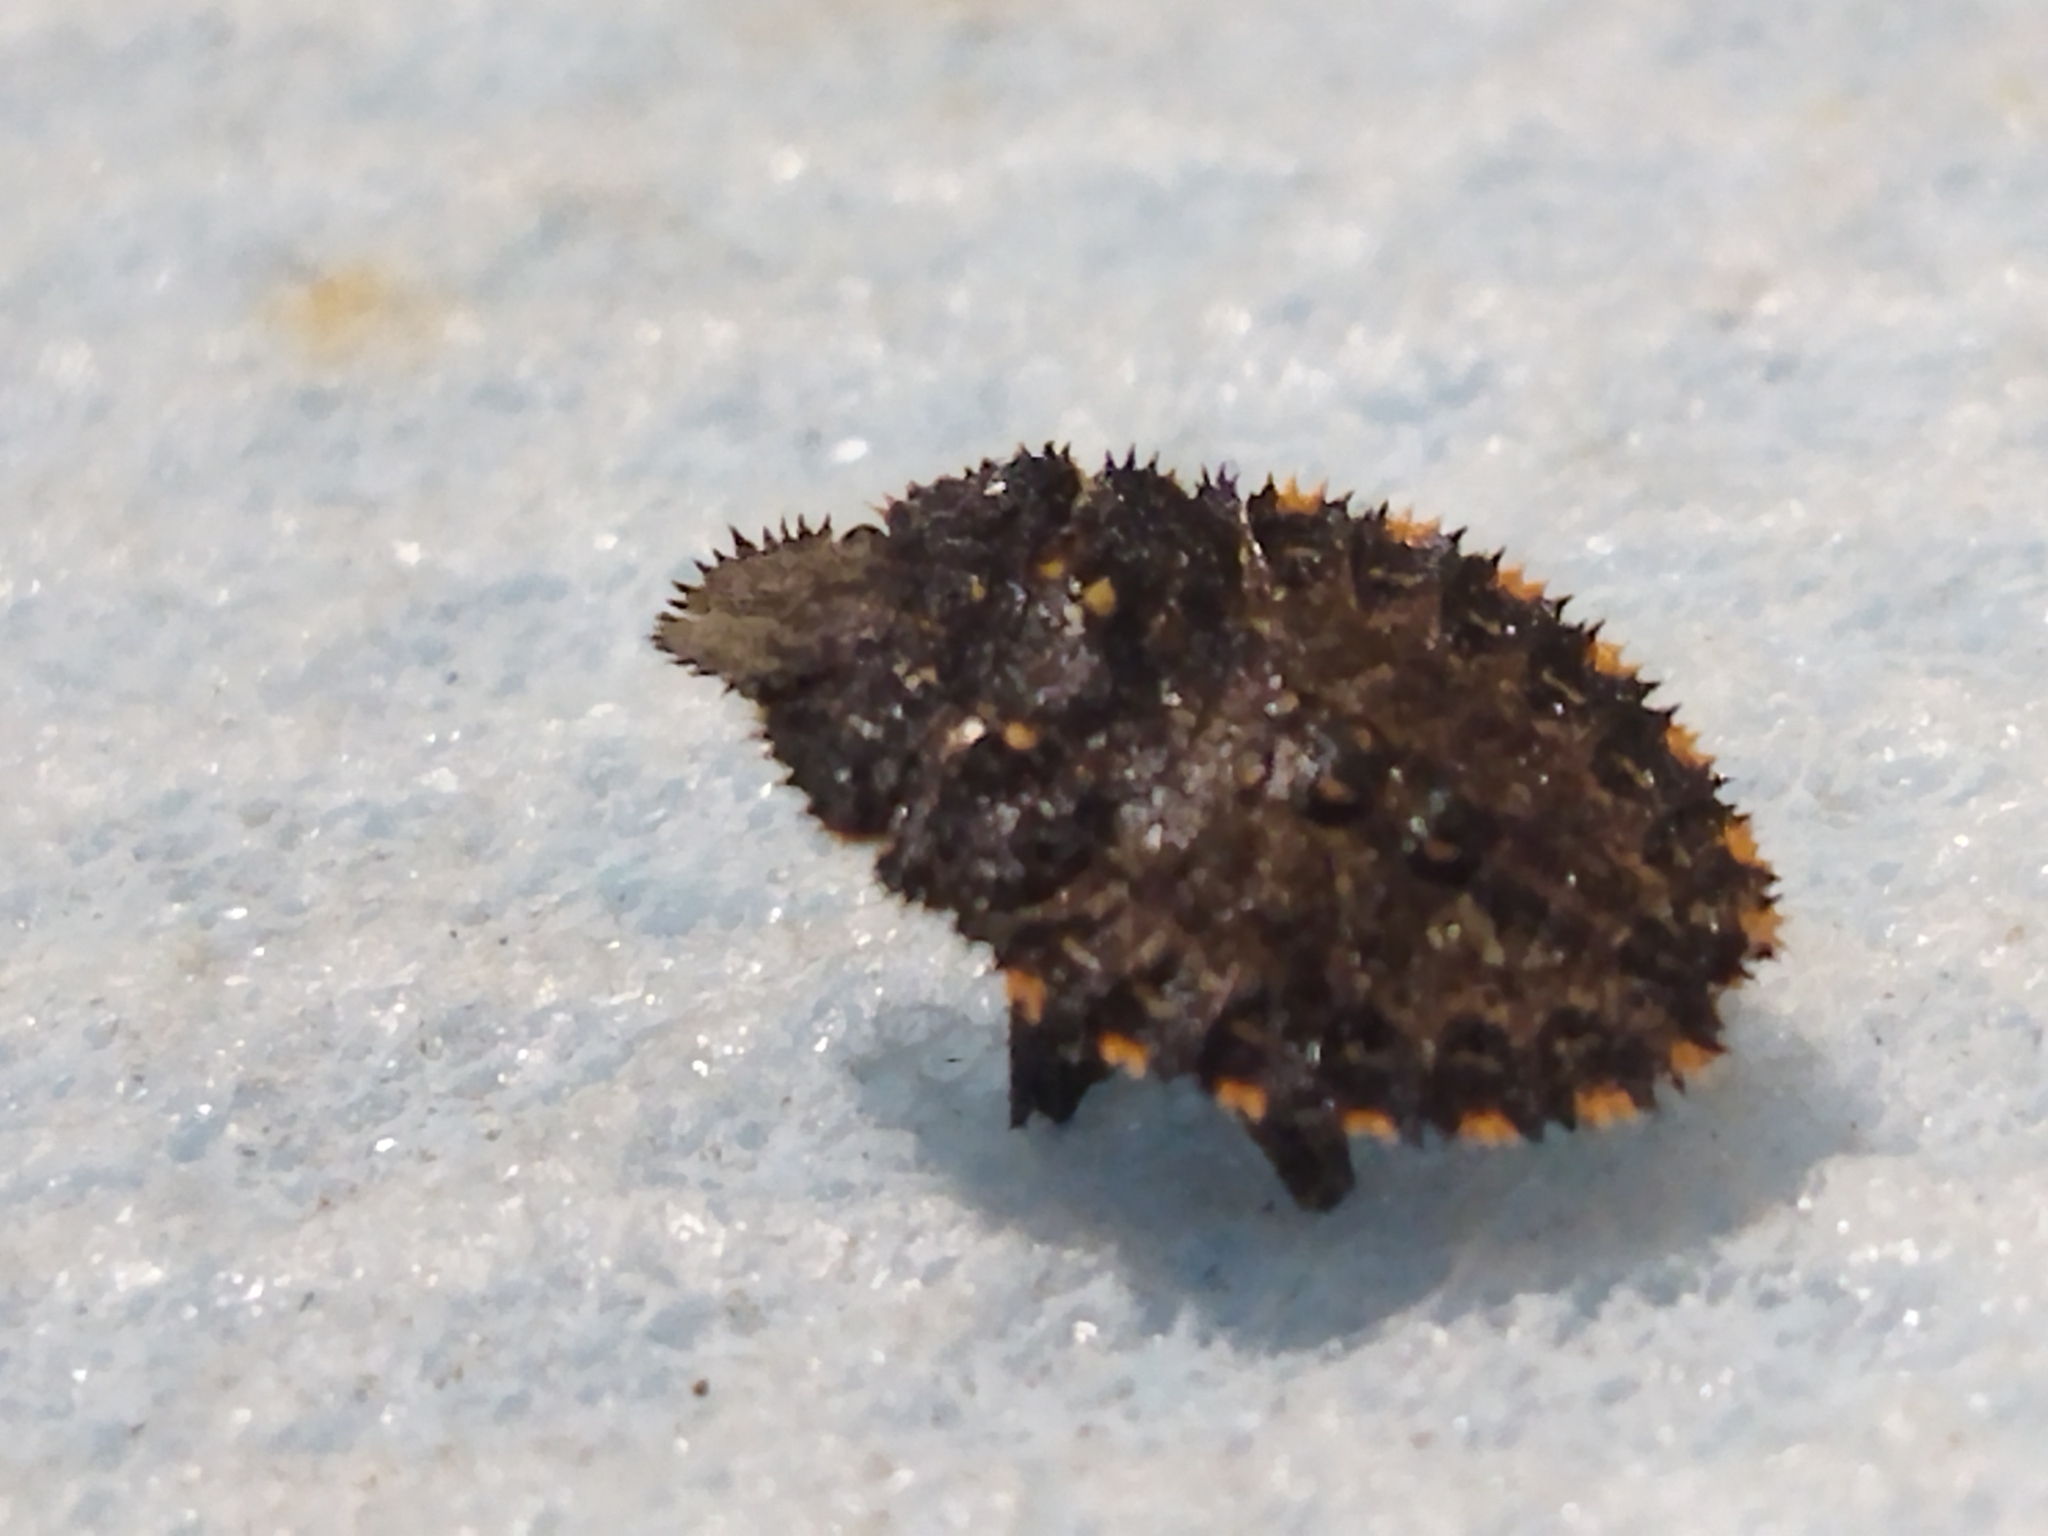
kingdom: Animalia
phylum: Arthropoda
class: Insecta
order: Hemiptera
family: Pentatomidae
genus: Mustha
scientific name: Mustha spinosula
